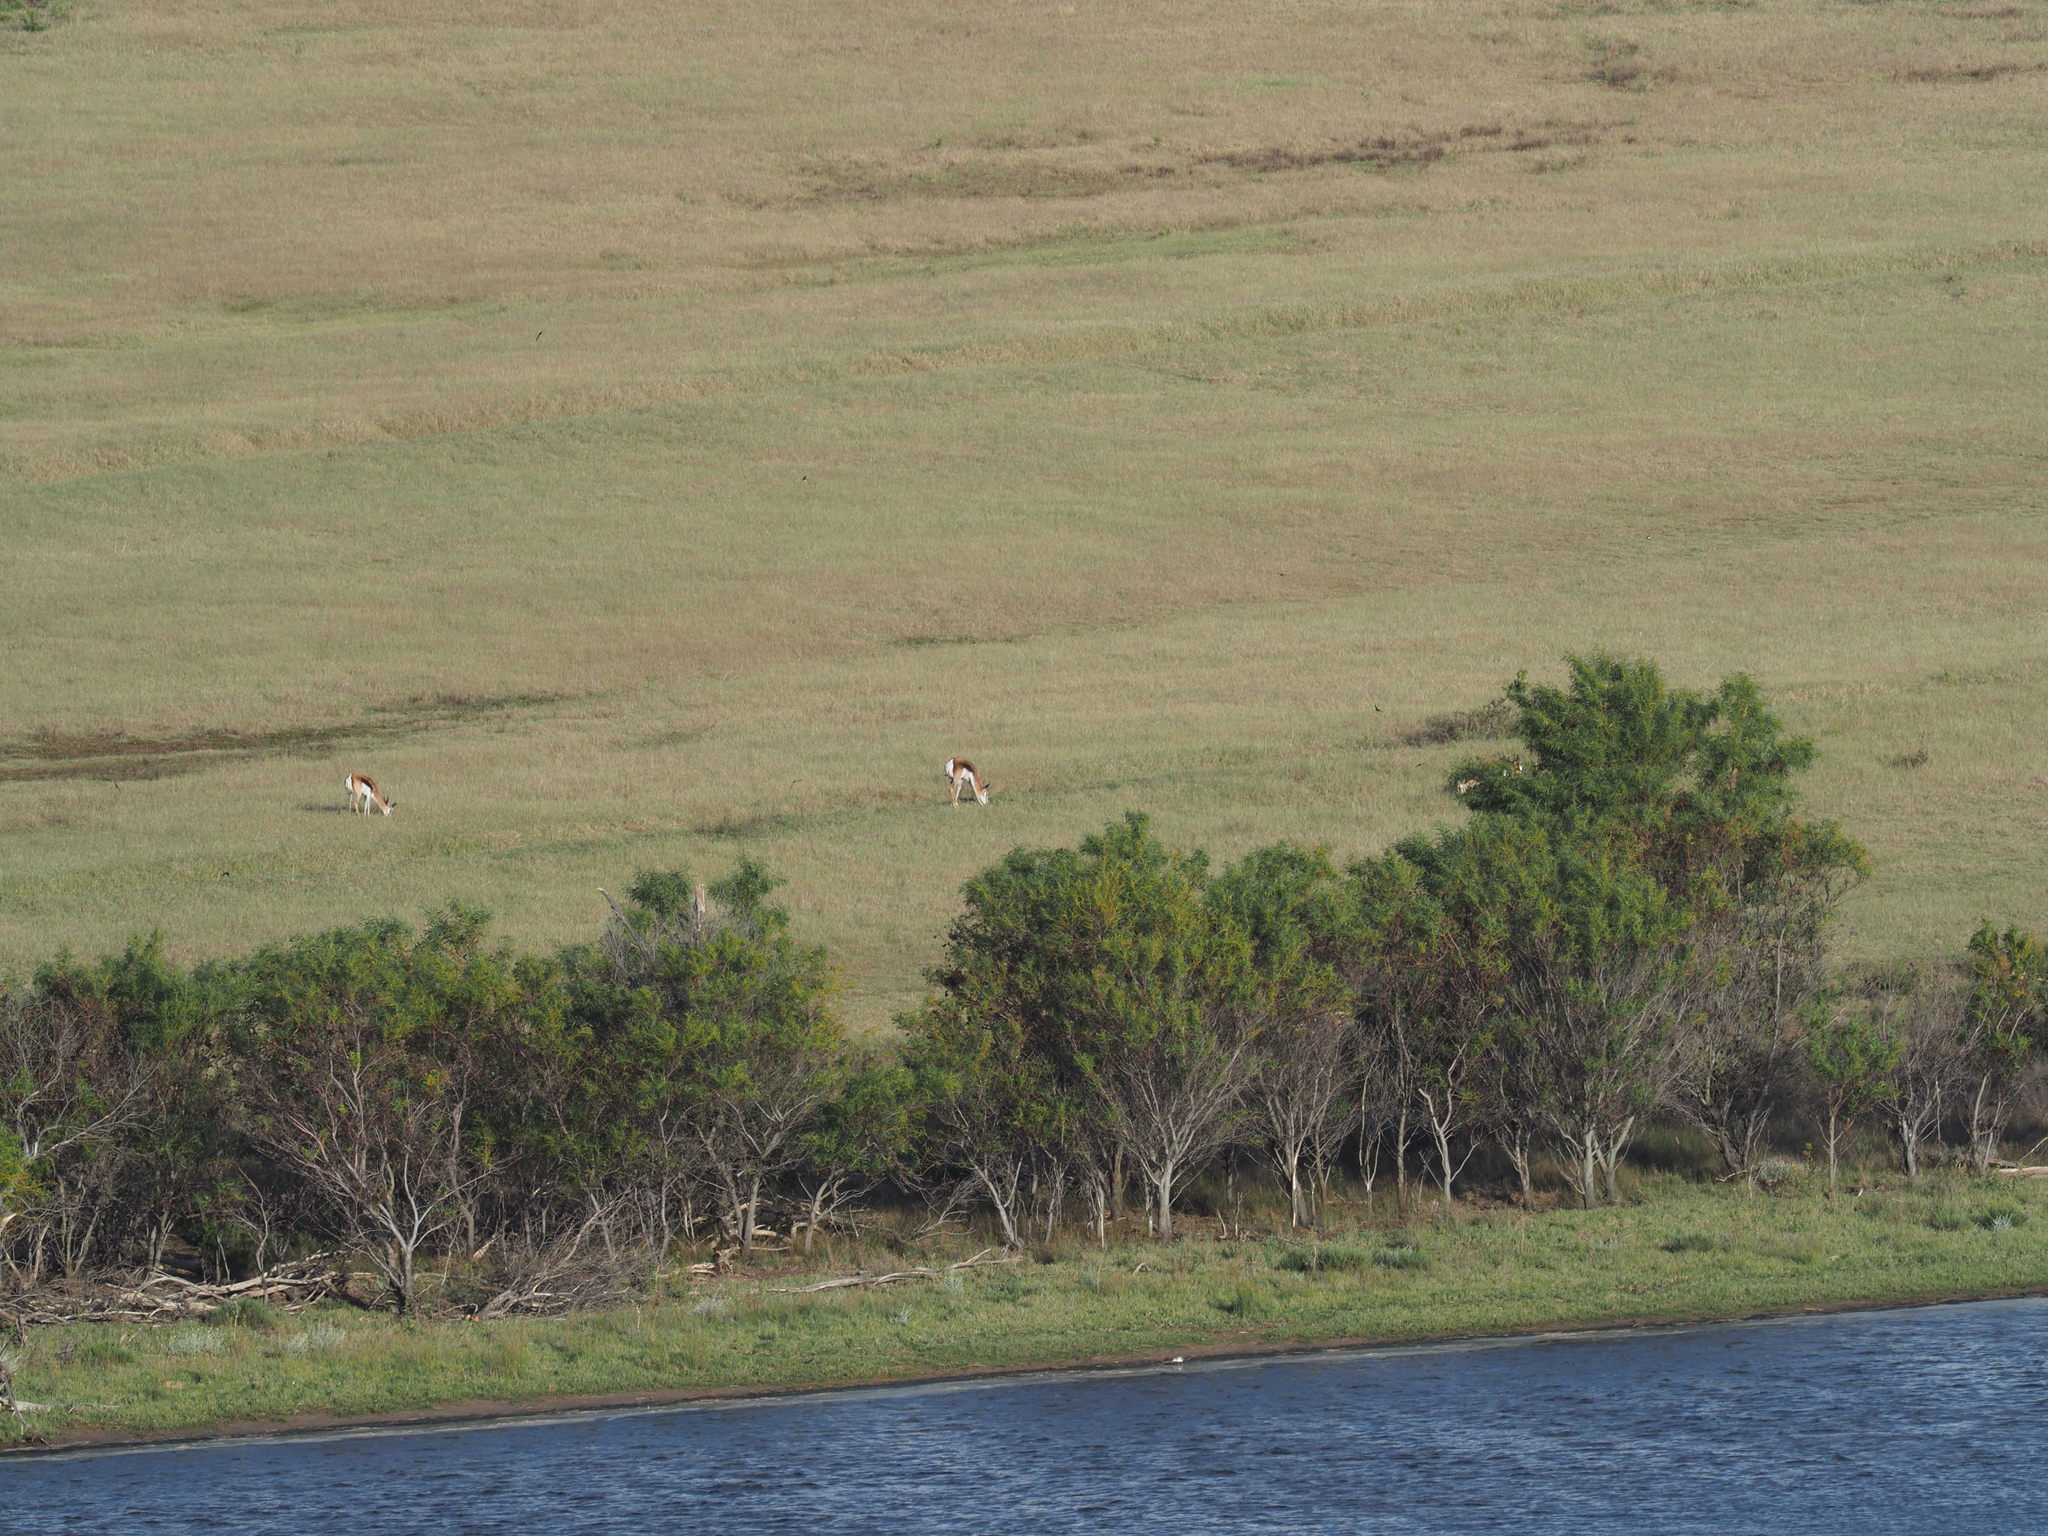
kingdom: Animalia
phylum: Chordata
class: Mammalia
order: Artiodactyla
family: Bovidae
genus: Antidorcas
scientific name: Antidorcas marsupialis
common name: Springbok
